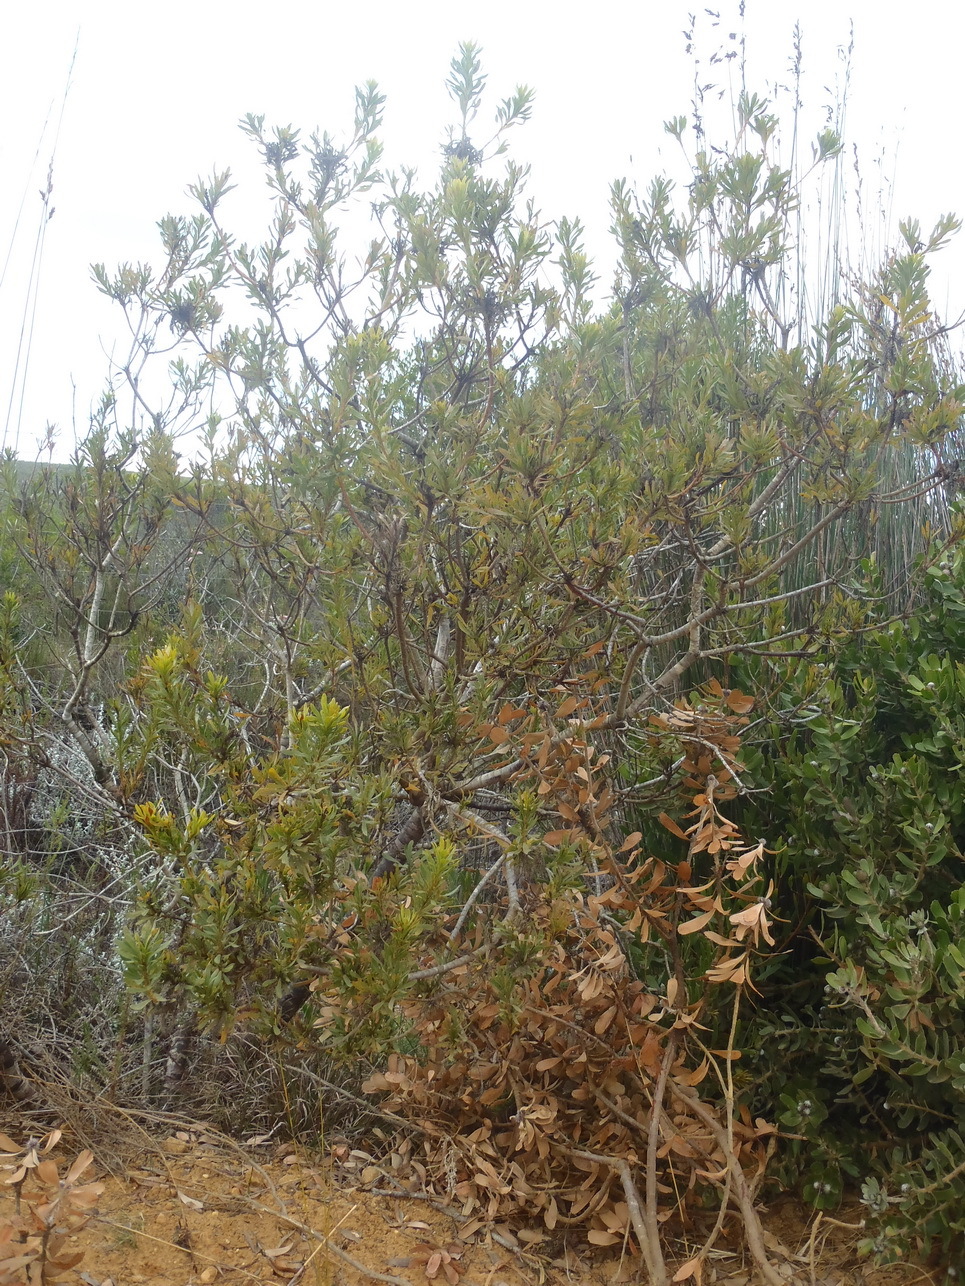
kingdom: Plantae
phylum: Tracheophyta
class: Magnoliopsida
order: Proteales
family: Proteaceae
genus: Aulax
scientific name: Aulax umbellata
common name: Broad-leaf featherbush
